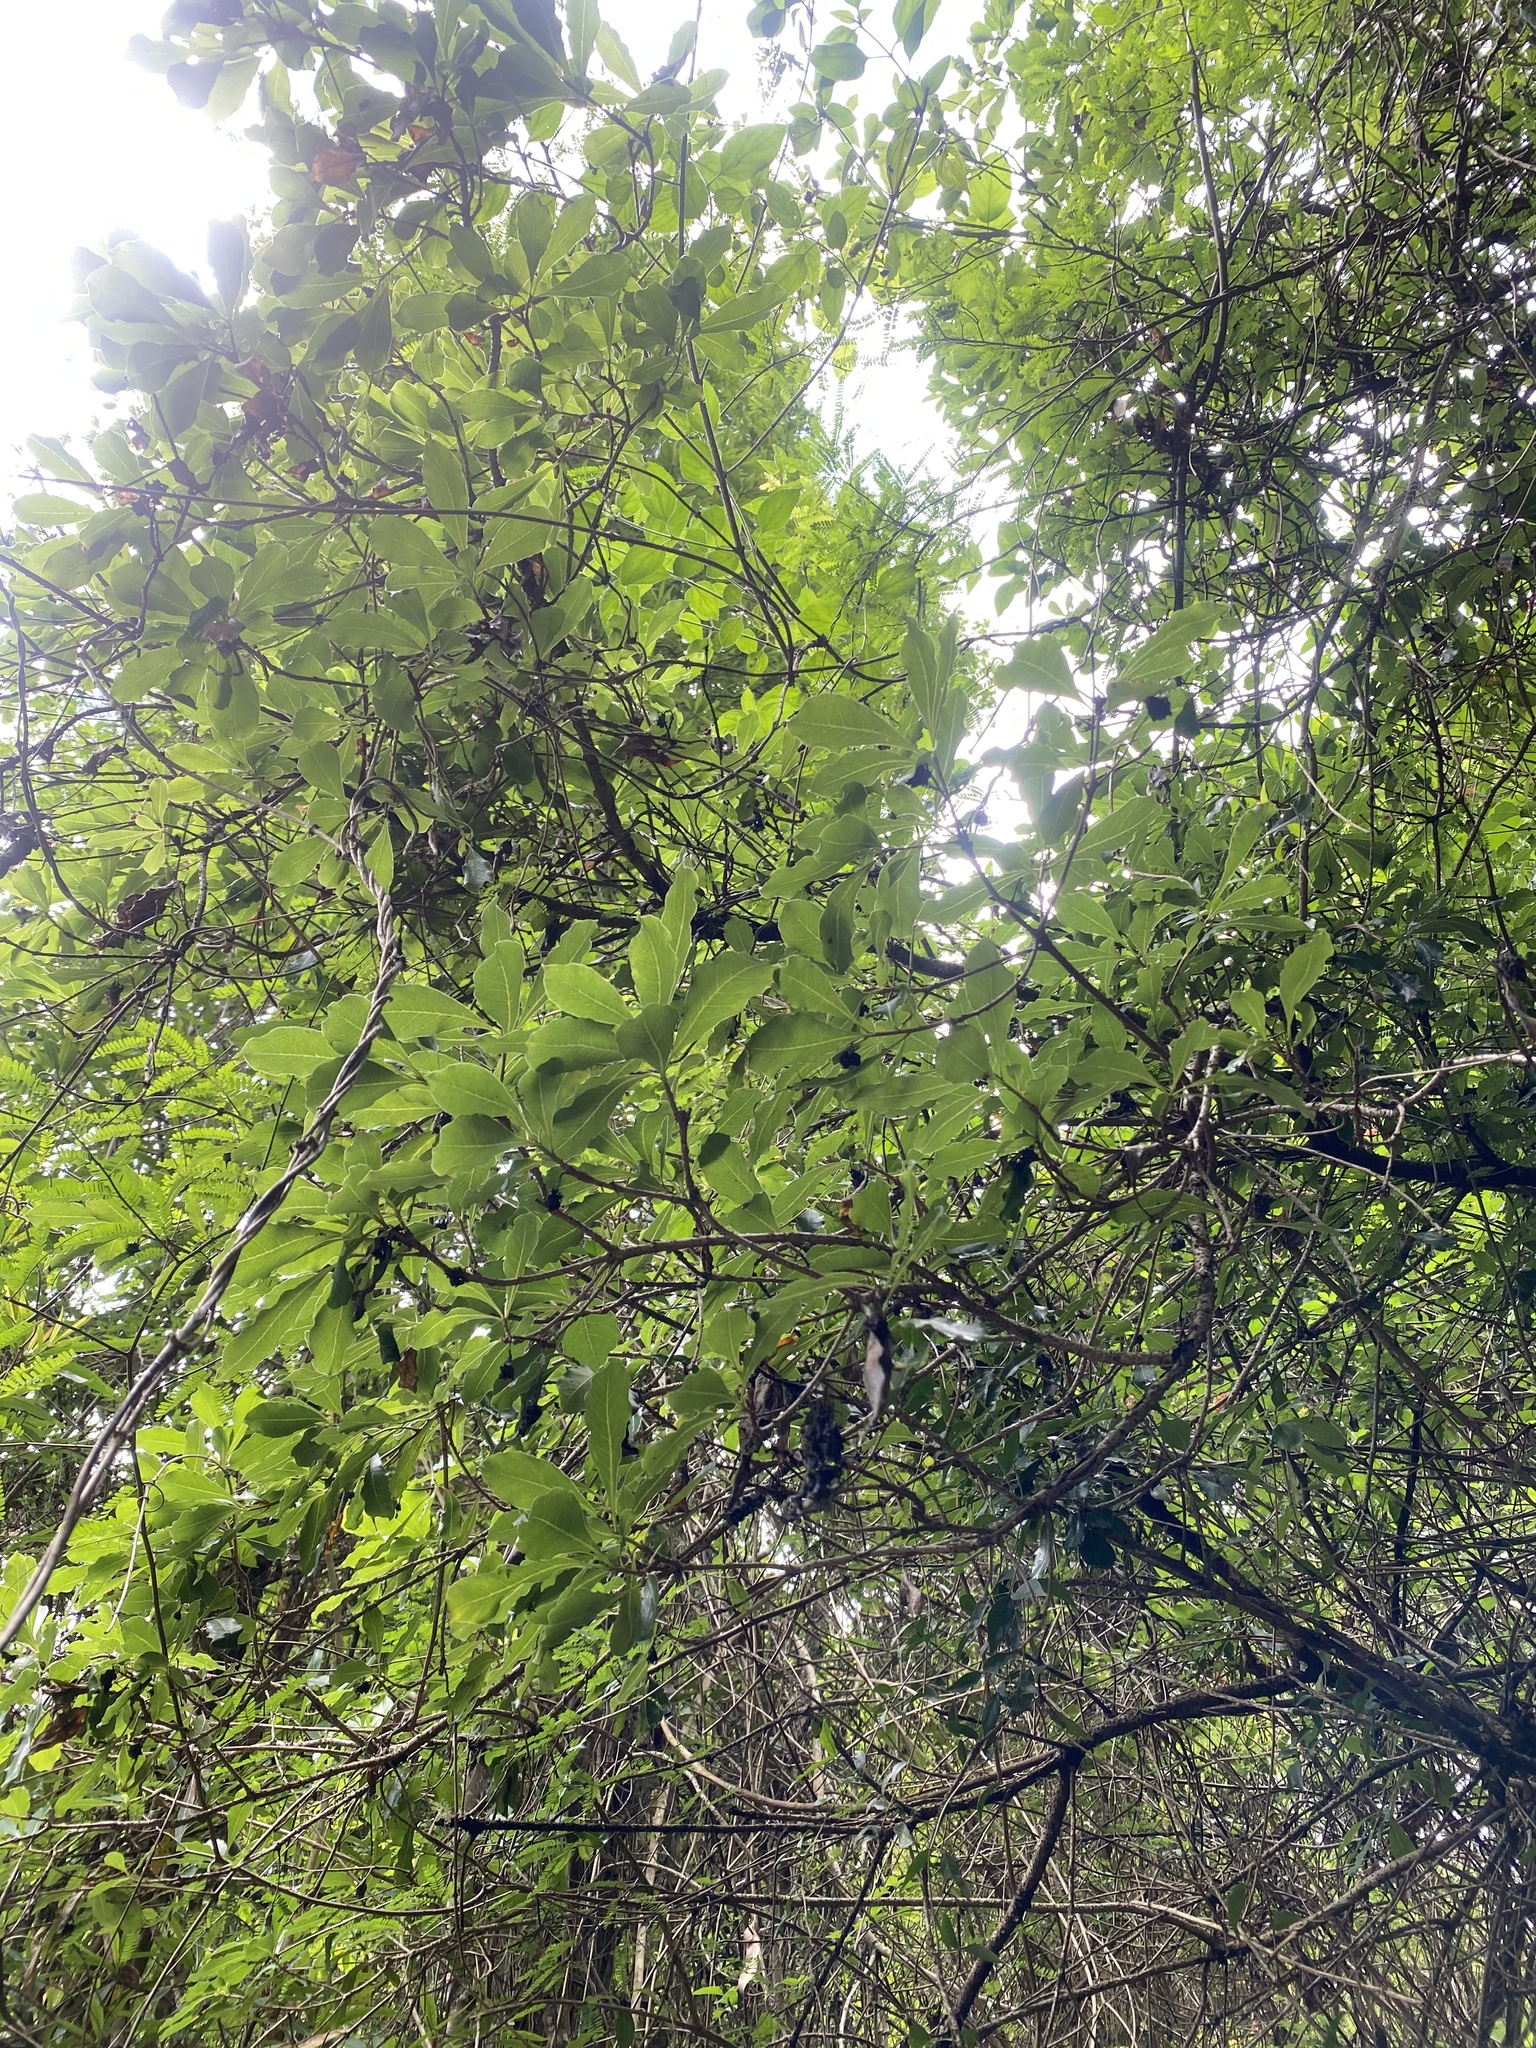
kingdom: Plantae
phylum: Tracheophyta
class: Magnoliopsida
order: Fabales
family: Fabaceae
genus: Senegalia
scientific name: Senegalia ataxacantha
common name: Flame acacia
